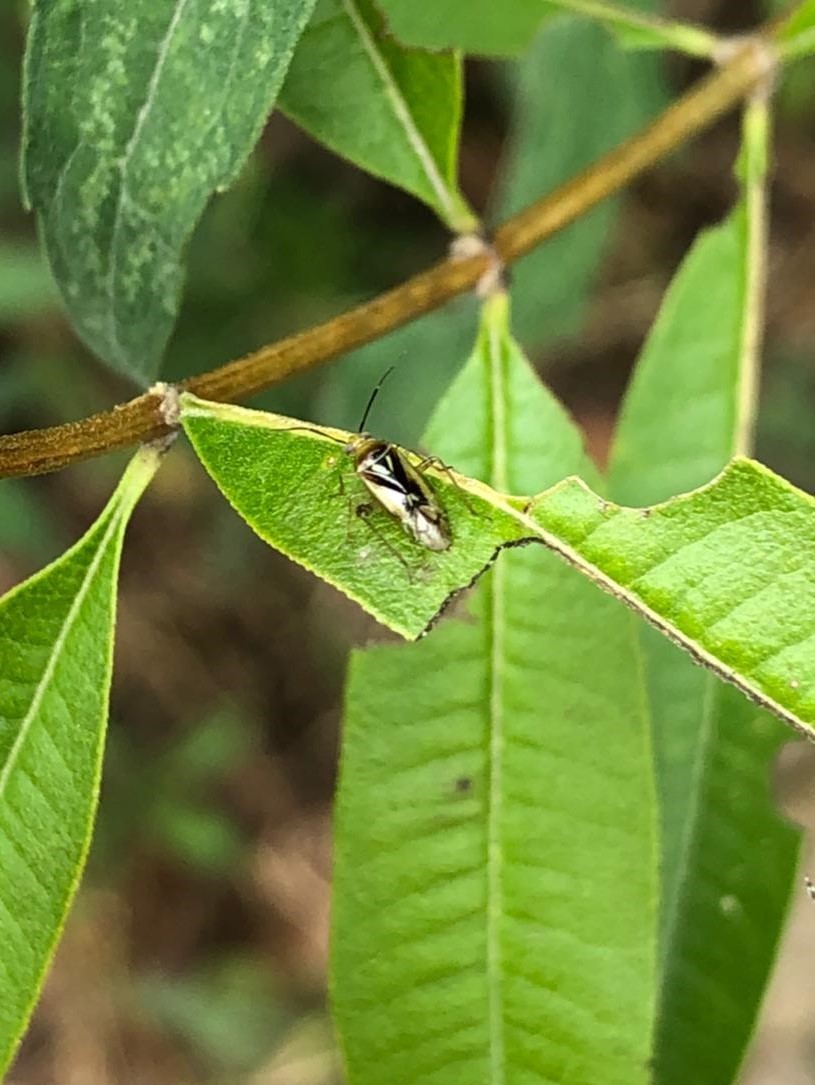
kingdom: Animalia
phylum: Arthropoda
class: Insecta
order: Hemiptera
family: Miridae
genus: Proba
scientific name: Proba vittiscutis
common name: Plant bug
